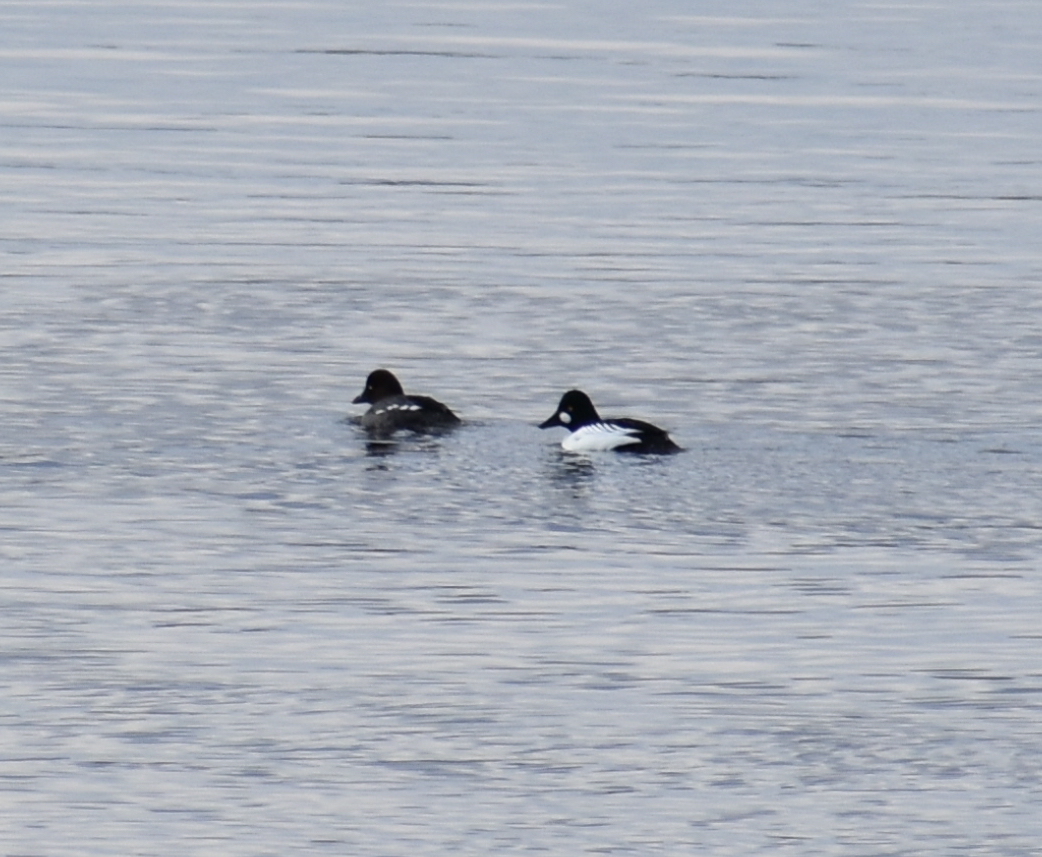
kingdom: Animalia
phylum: Chordata
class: Aves
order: Anseriformes
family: Anatidae
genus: Bucephala
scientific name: Bucephala clangula
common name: Common goldeneye
